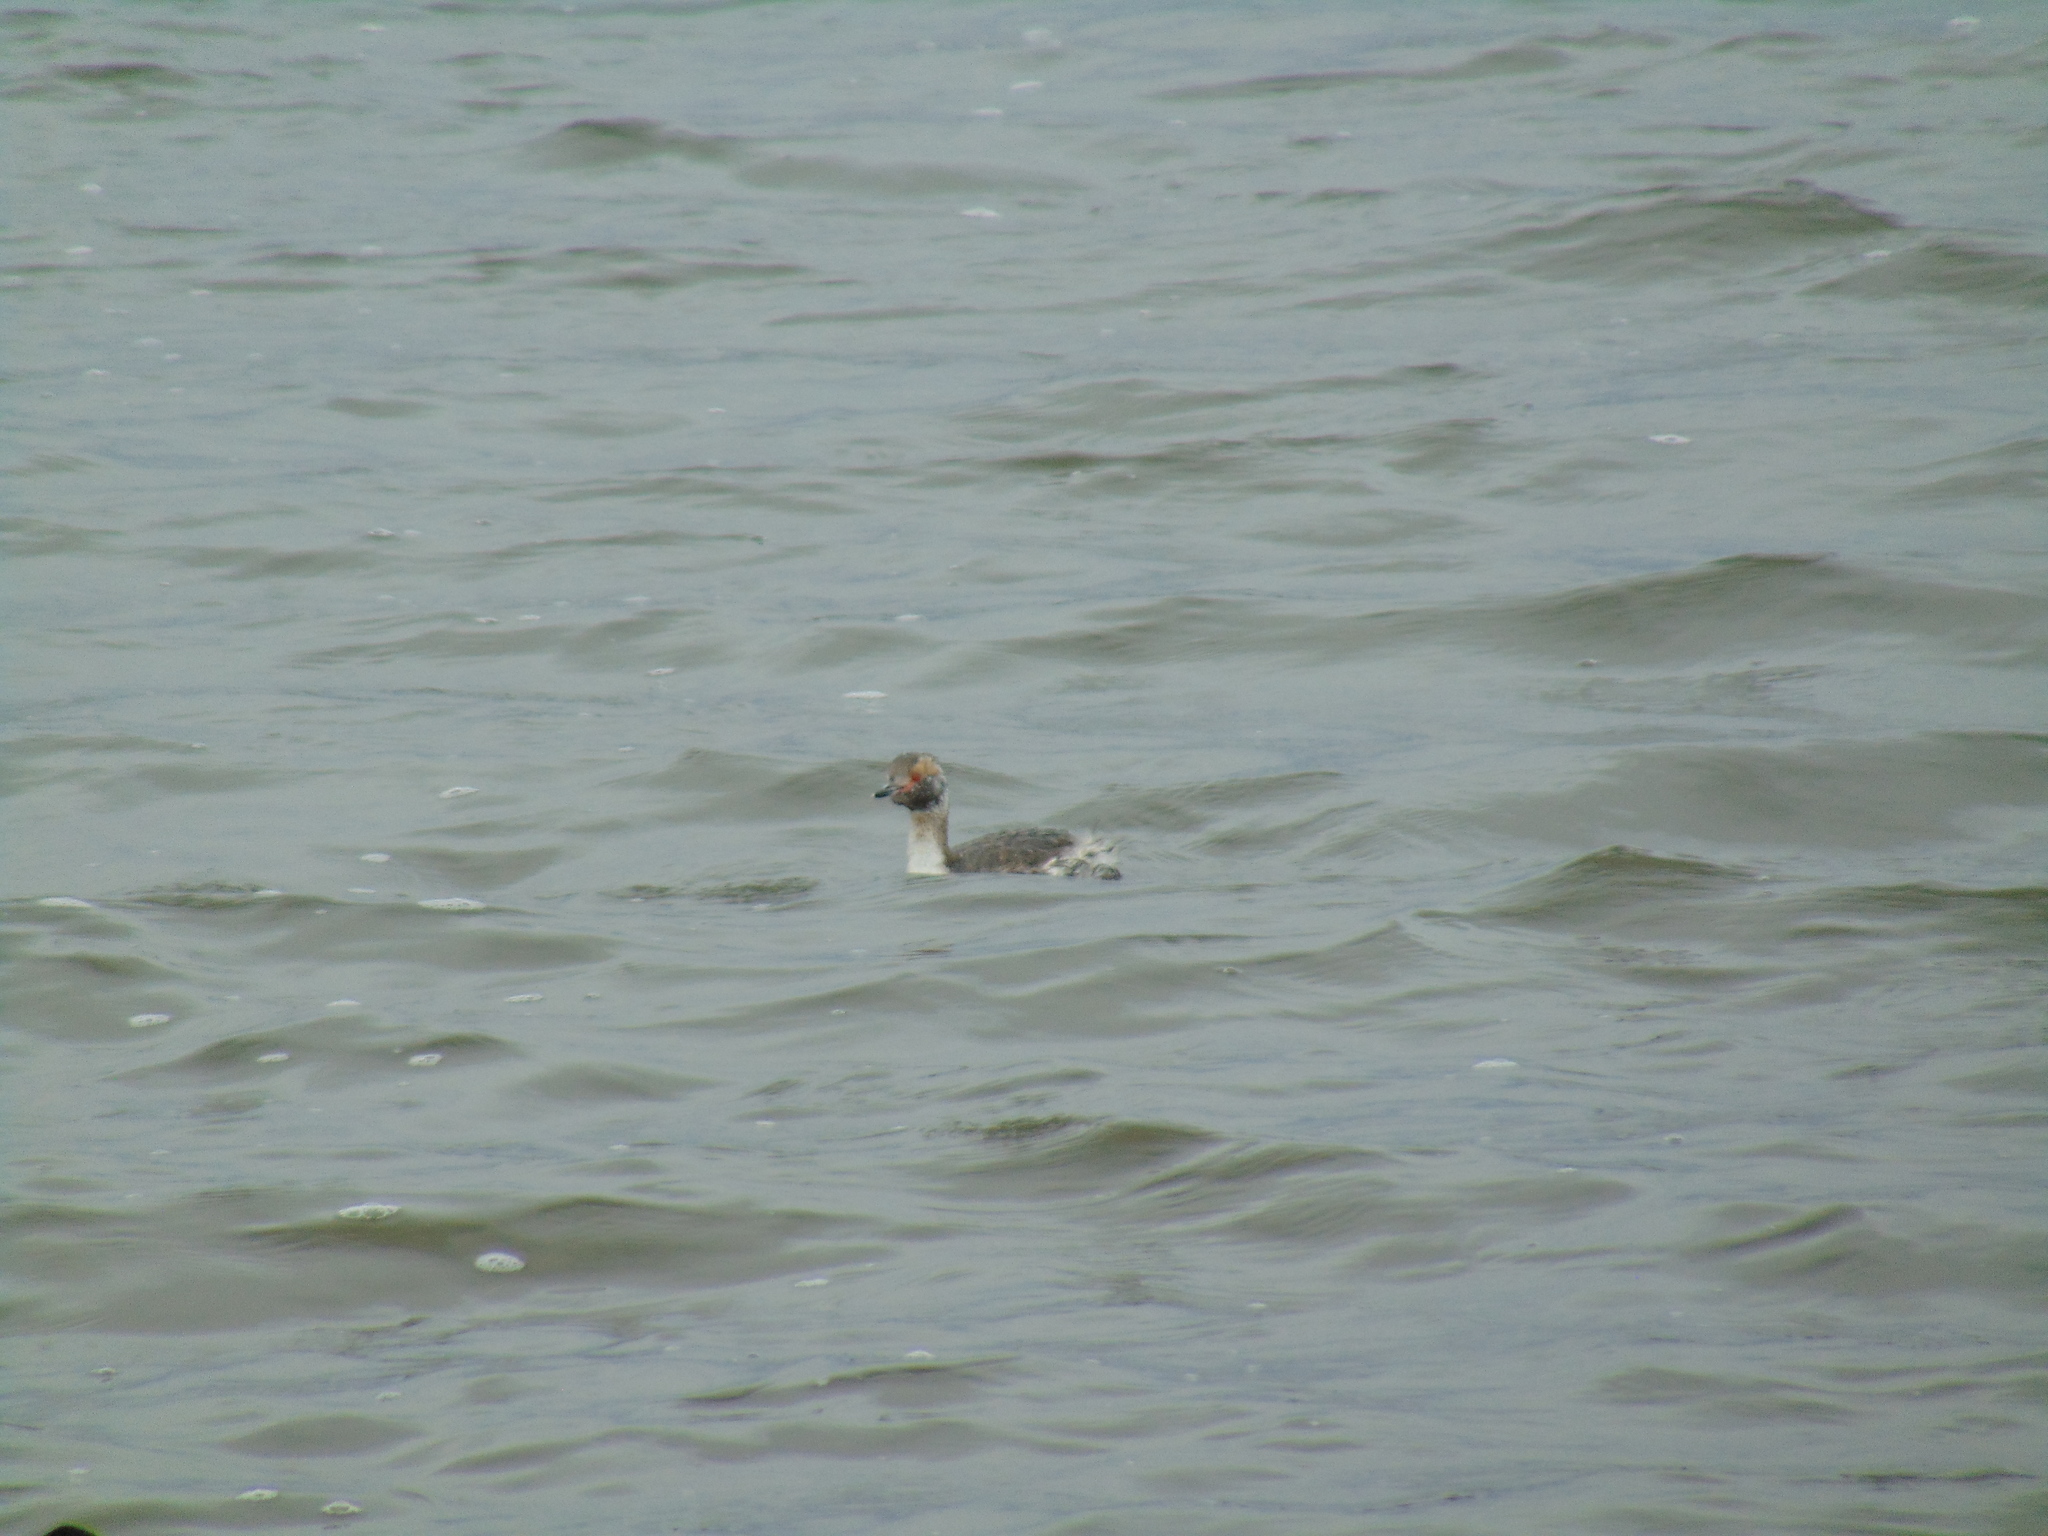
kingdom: Animalia
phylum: Chordata
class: Aves
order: Podicipediformes
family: Podicipedidae
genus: Podiceps
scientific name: Podiceps auritus
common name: Horned grebe
